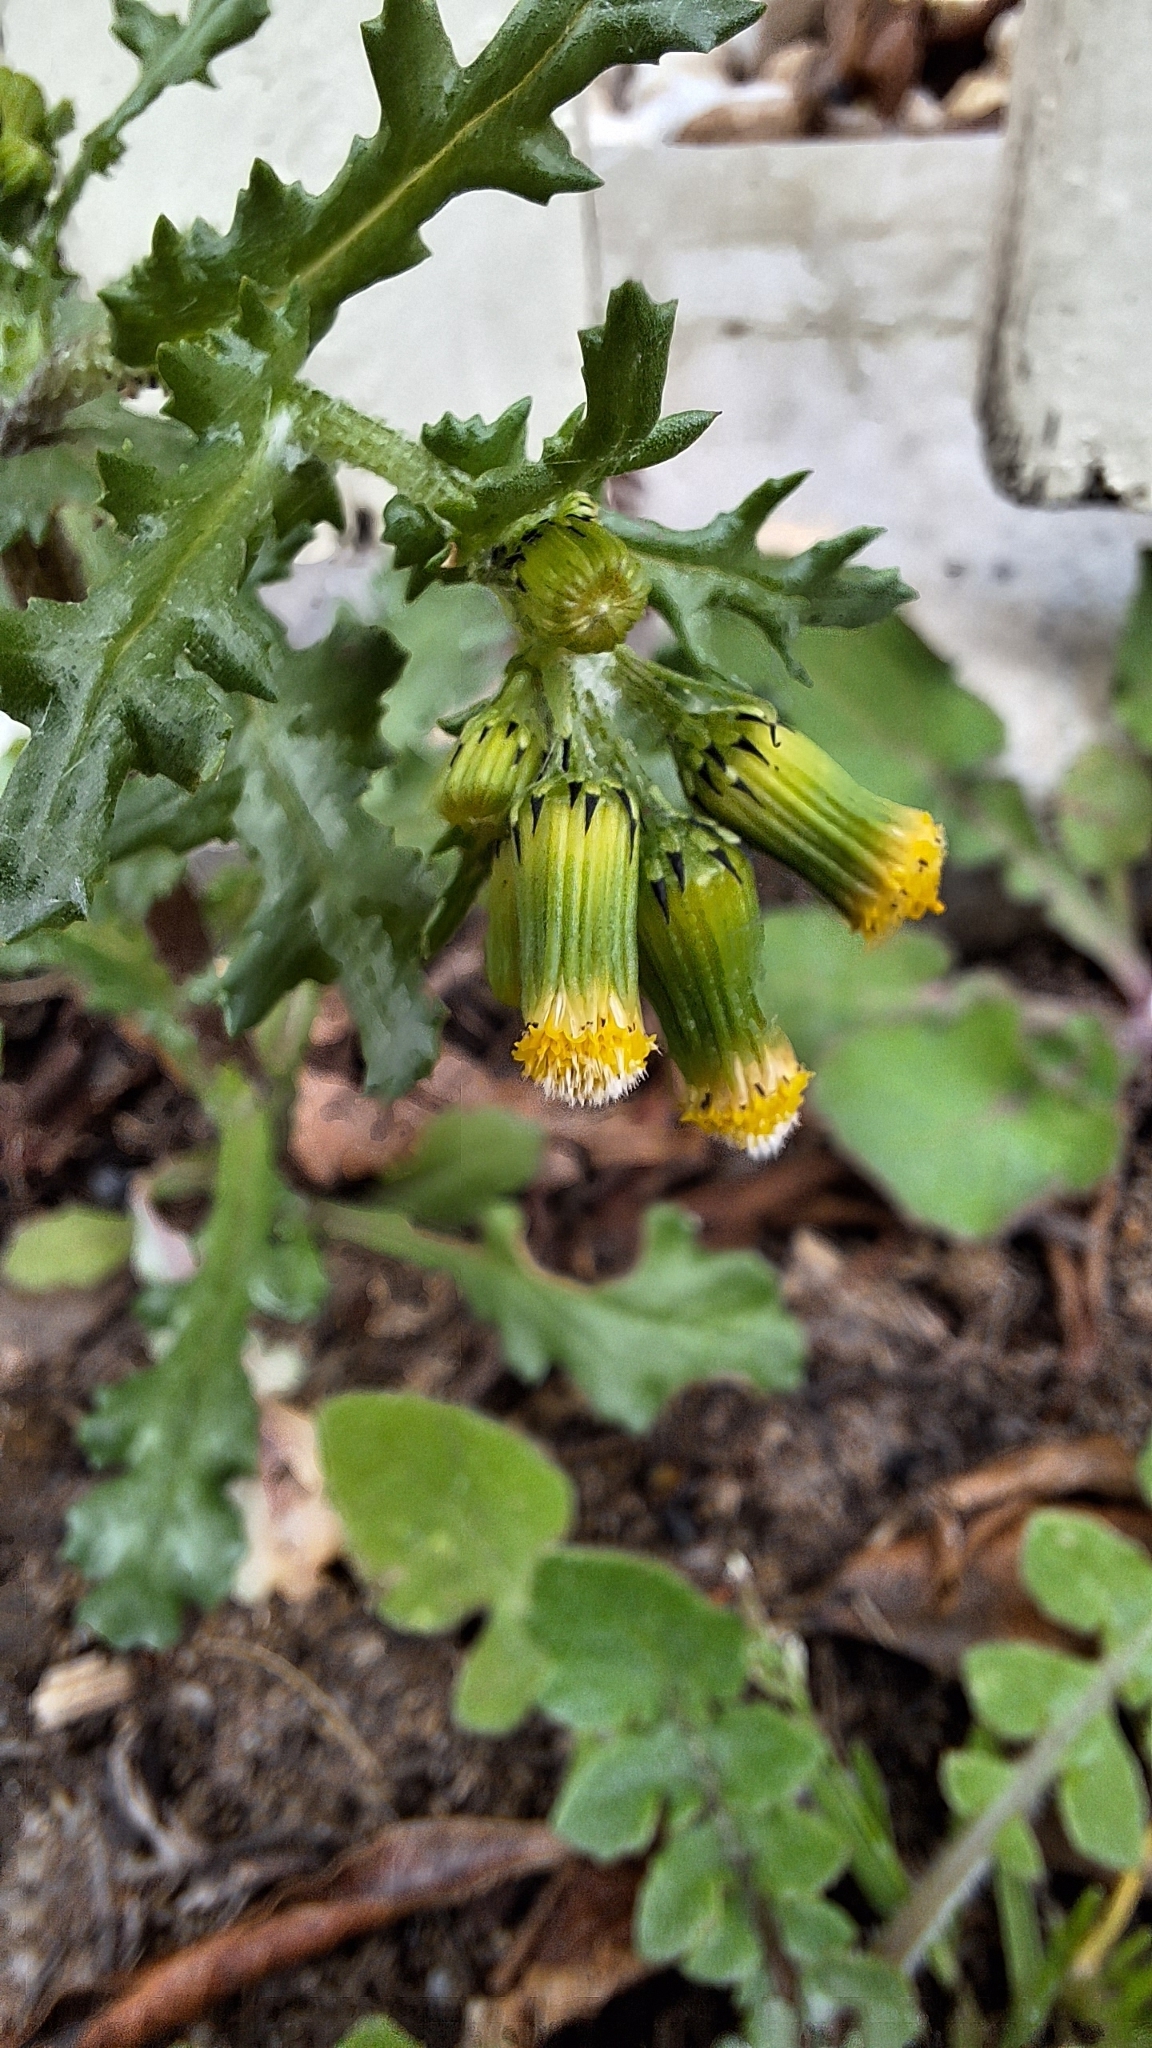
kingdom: Plantae
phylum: Tracheophyta
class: Magnoliopsida
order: Asterales
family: Asteraceae
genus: Senecio
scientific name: Senecio vulgaris
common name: Old-man-in-the-spring
